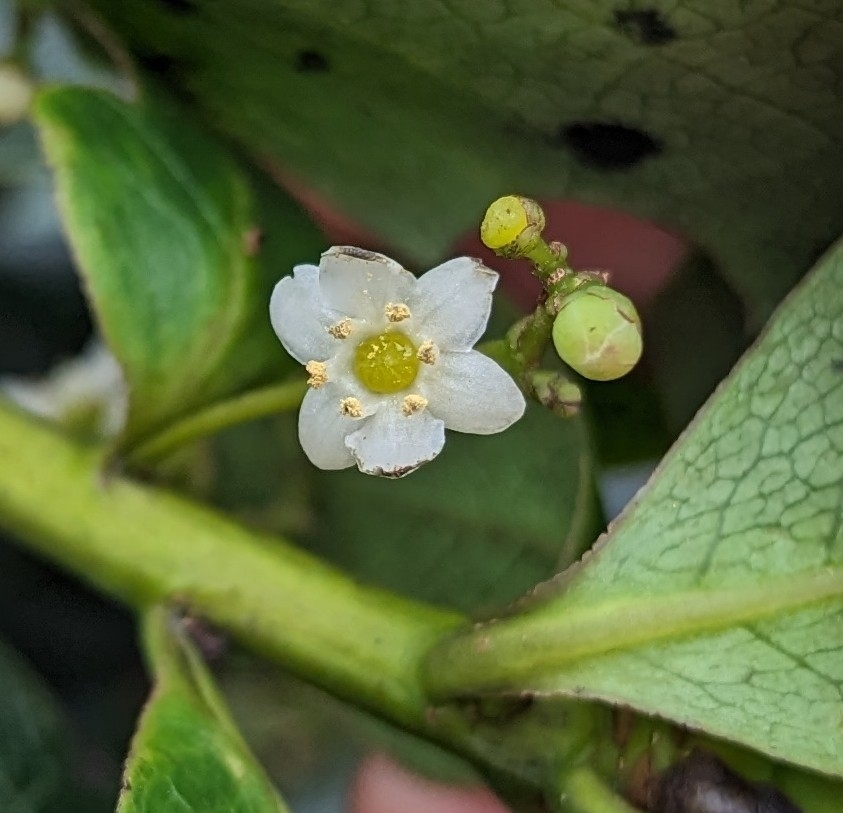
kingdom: Plantae
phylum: Tracheophyta
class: Magnoliopsida
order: Aquifoliales
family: Aquifoliaceae
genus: Ilex
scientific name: Ilex anomala
